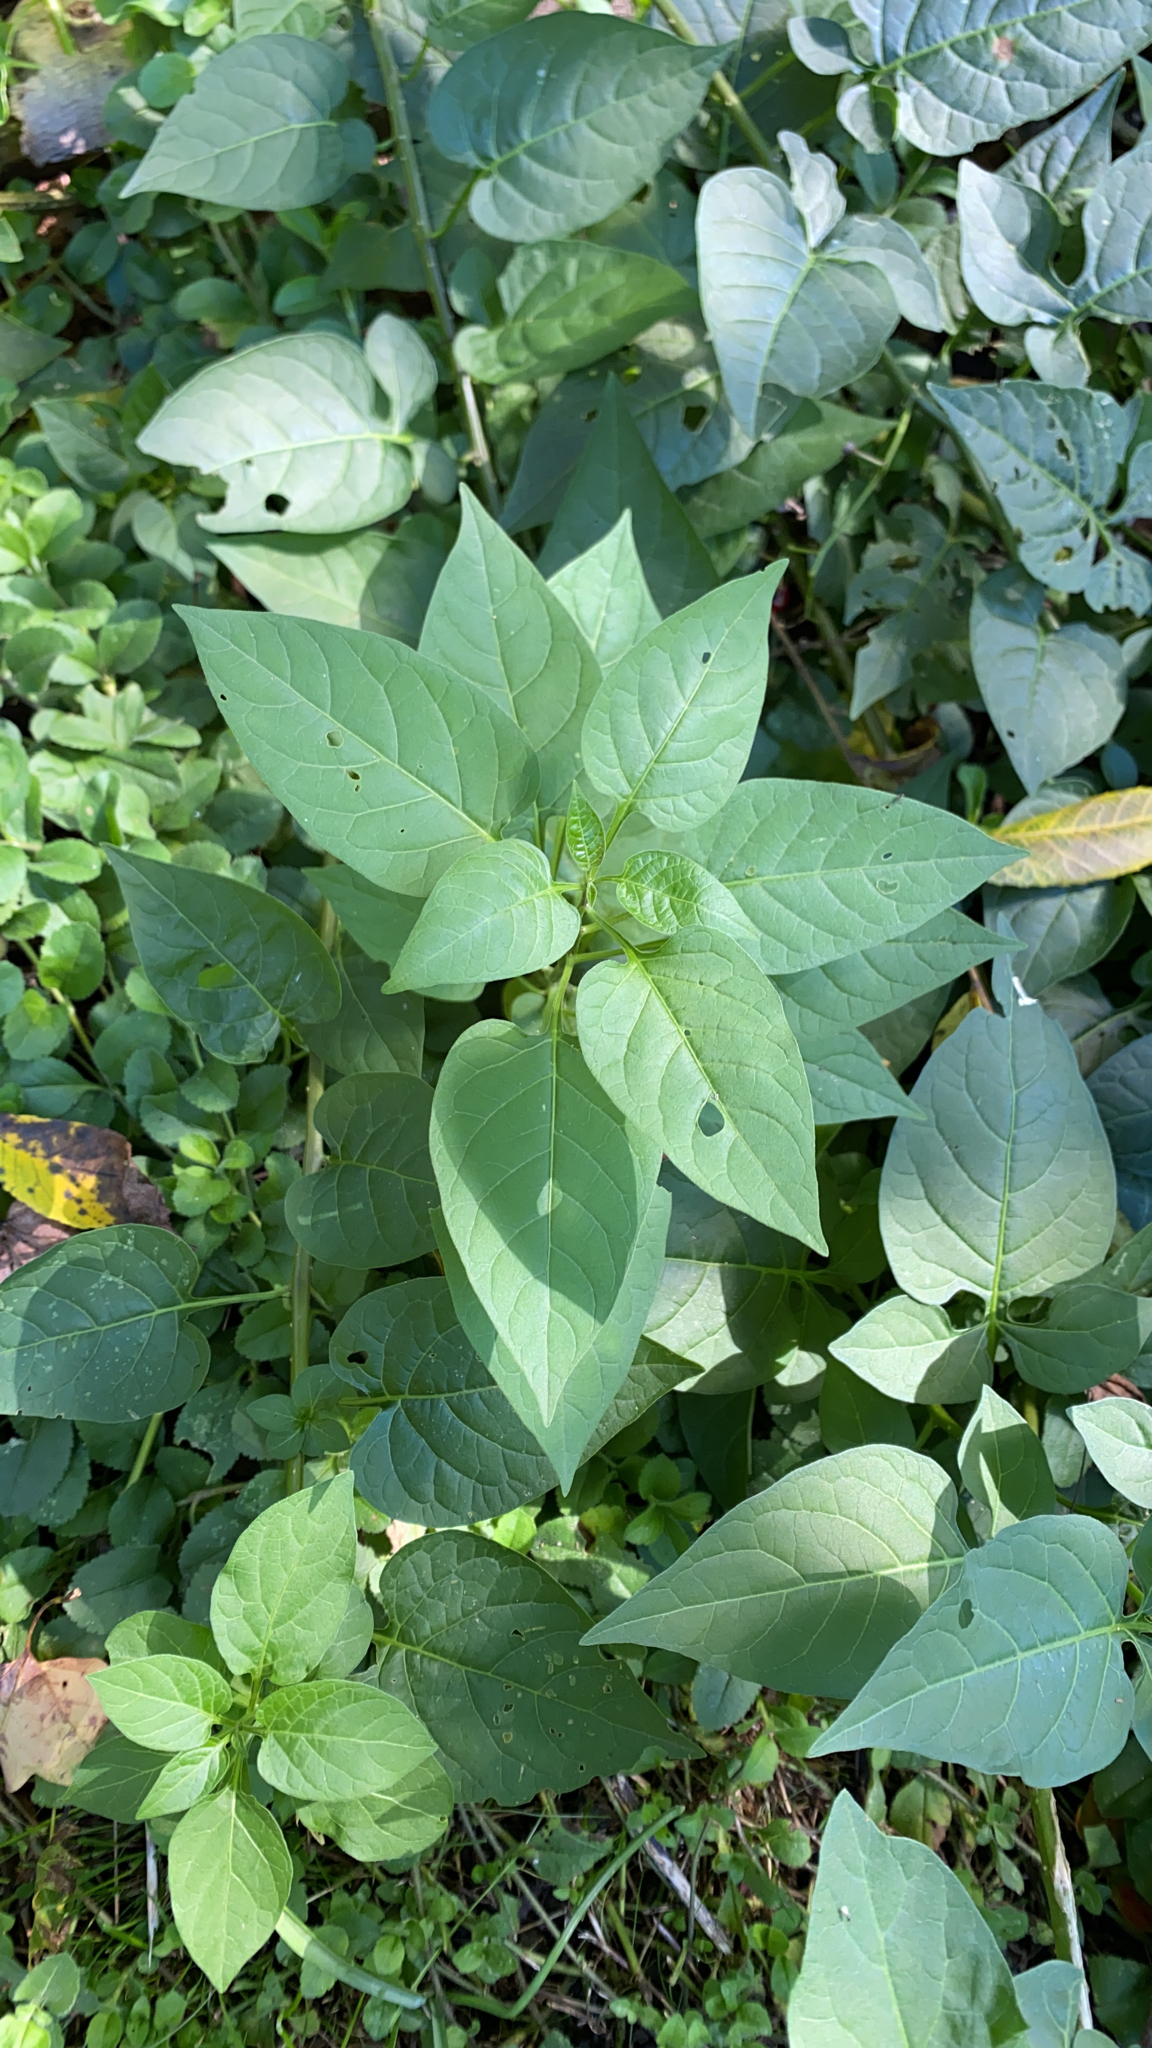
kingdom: Plantae
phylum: Tracheophyta
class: Magnoliopsida
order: Solanales
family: Solanaceae
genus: Solanum
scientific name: Solanum dulcamara
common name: Climbing nightshade
